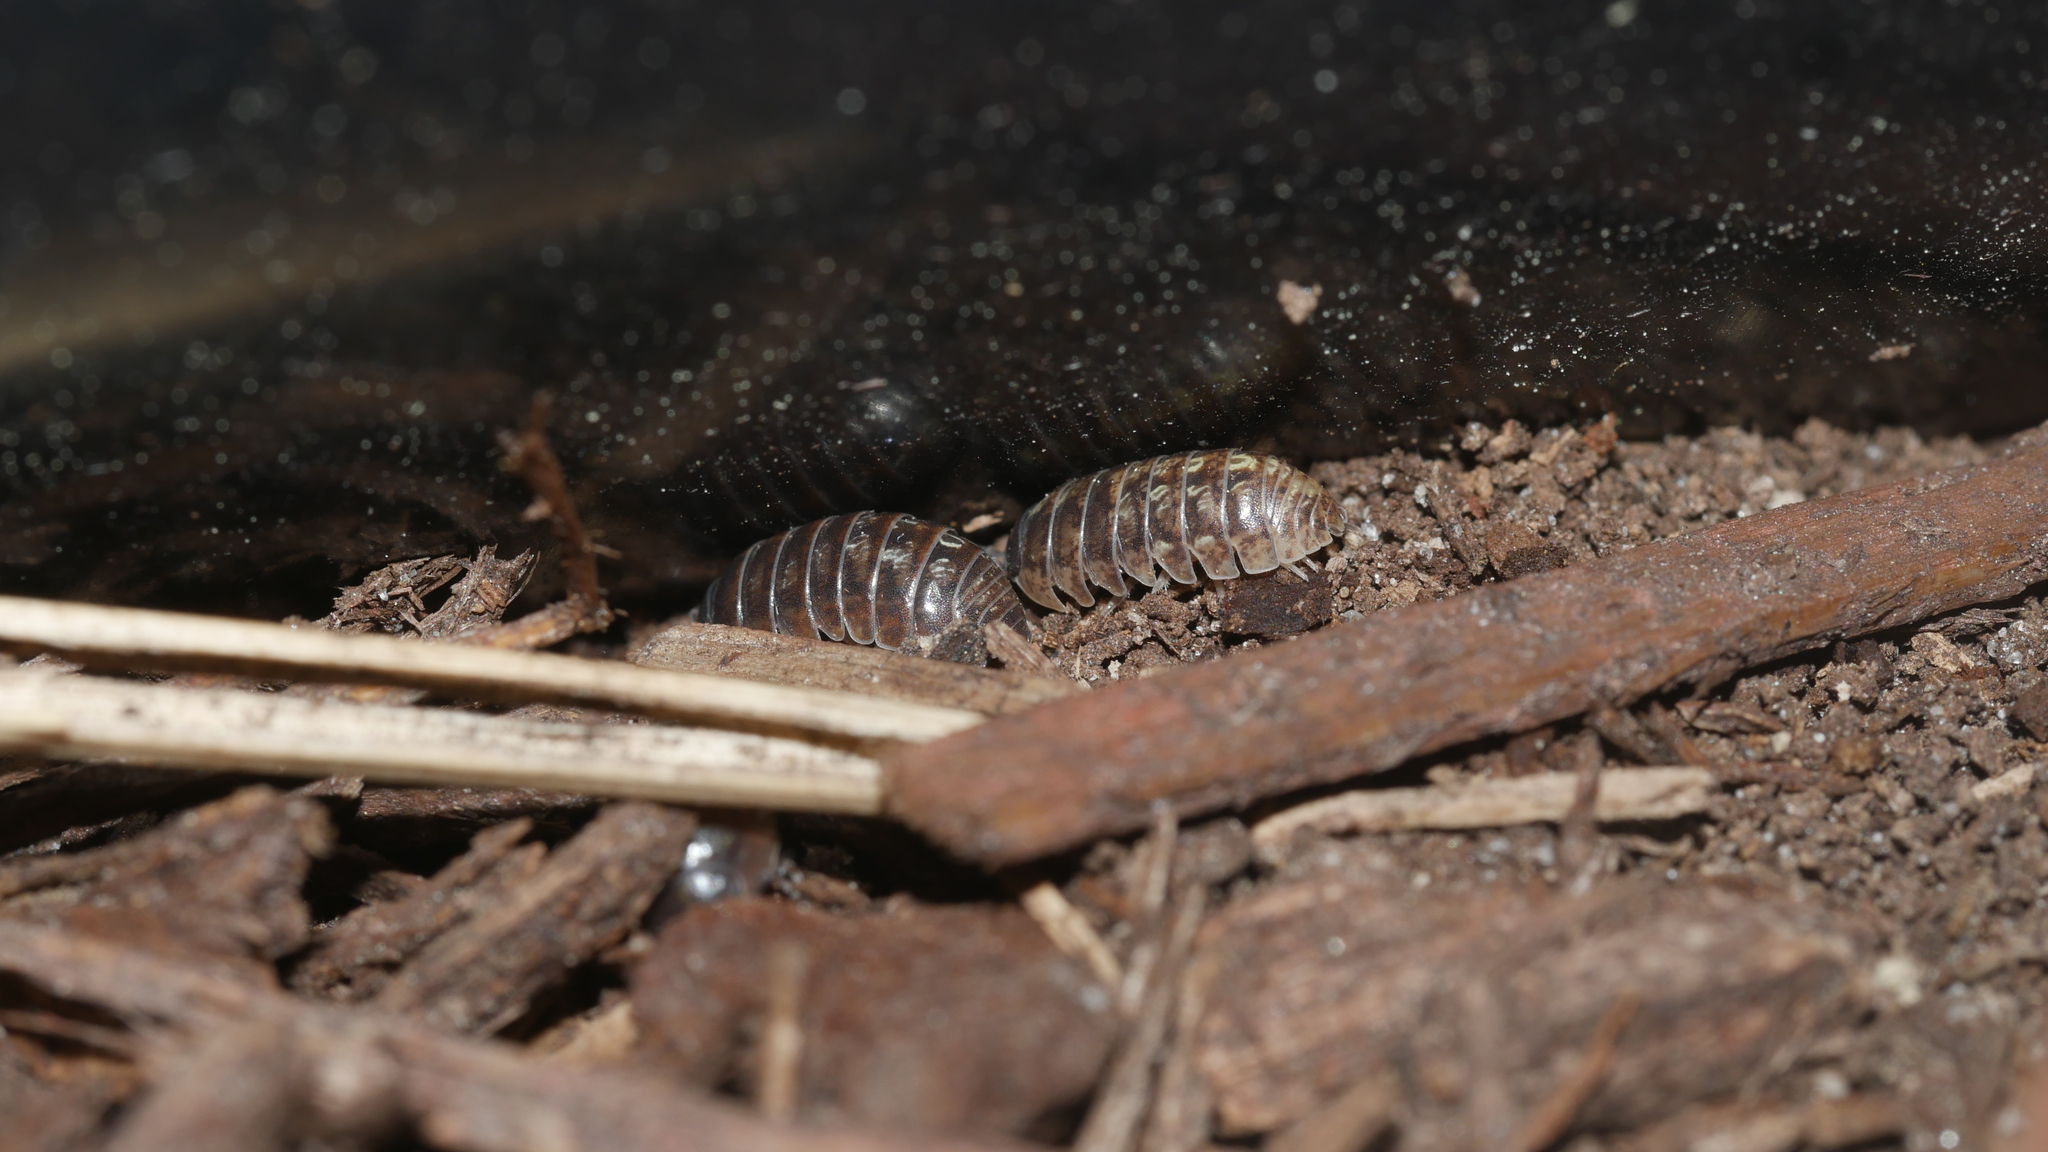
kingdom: Animalia
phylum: Arthropoda
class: Malacostraca
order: Isopoda
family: Armadillidiidae
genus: Armadillidium
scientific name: Armadillidium vulgare
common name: Common pill woodlouse
